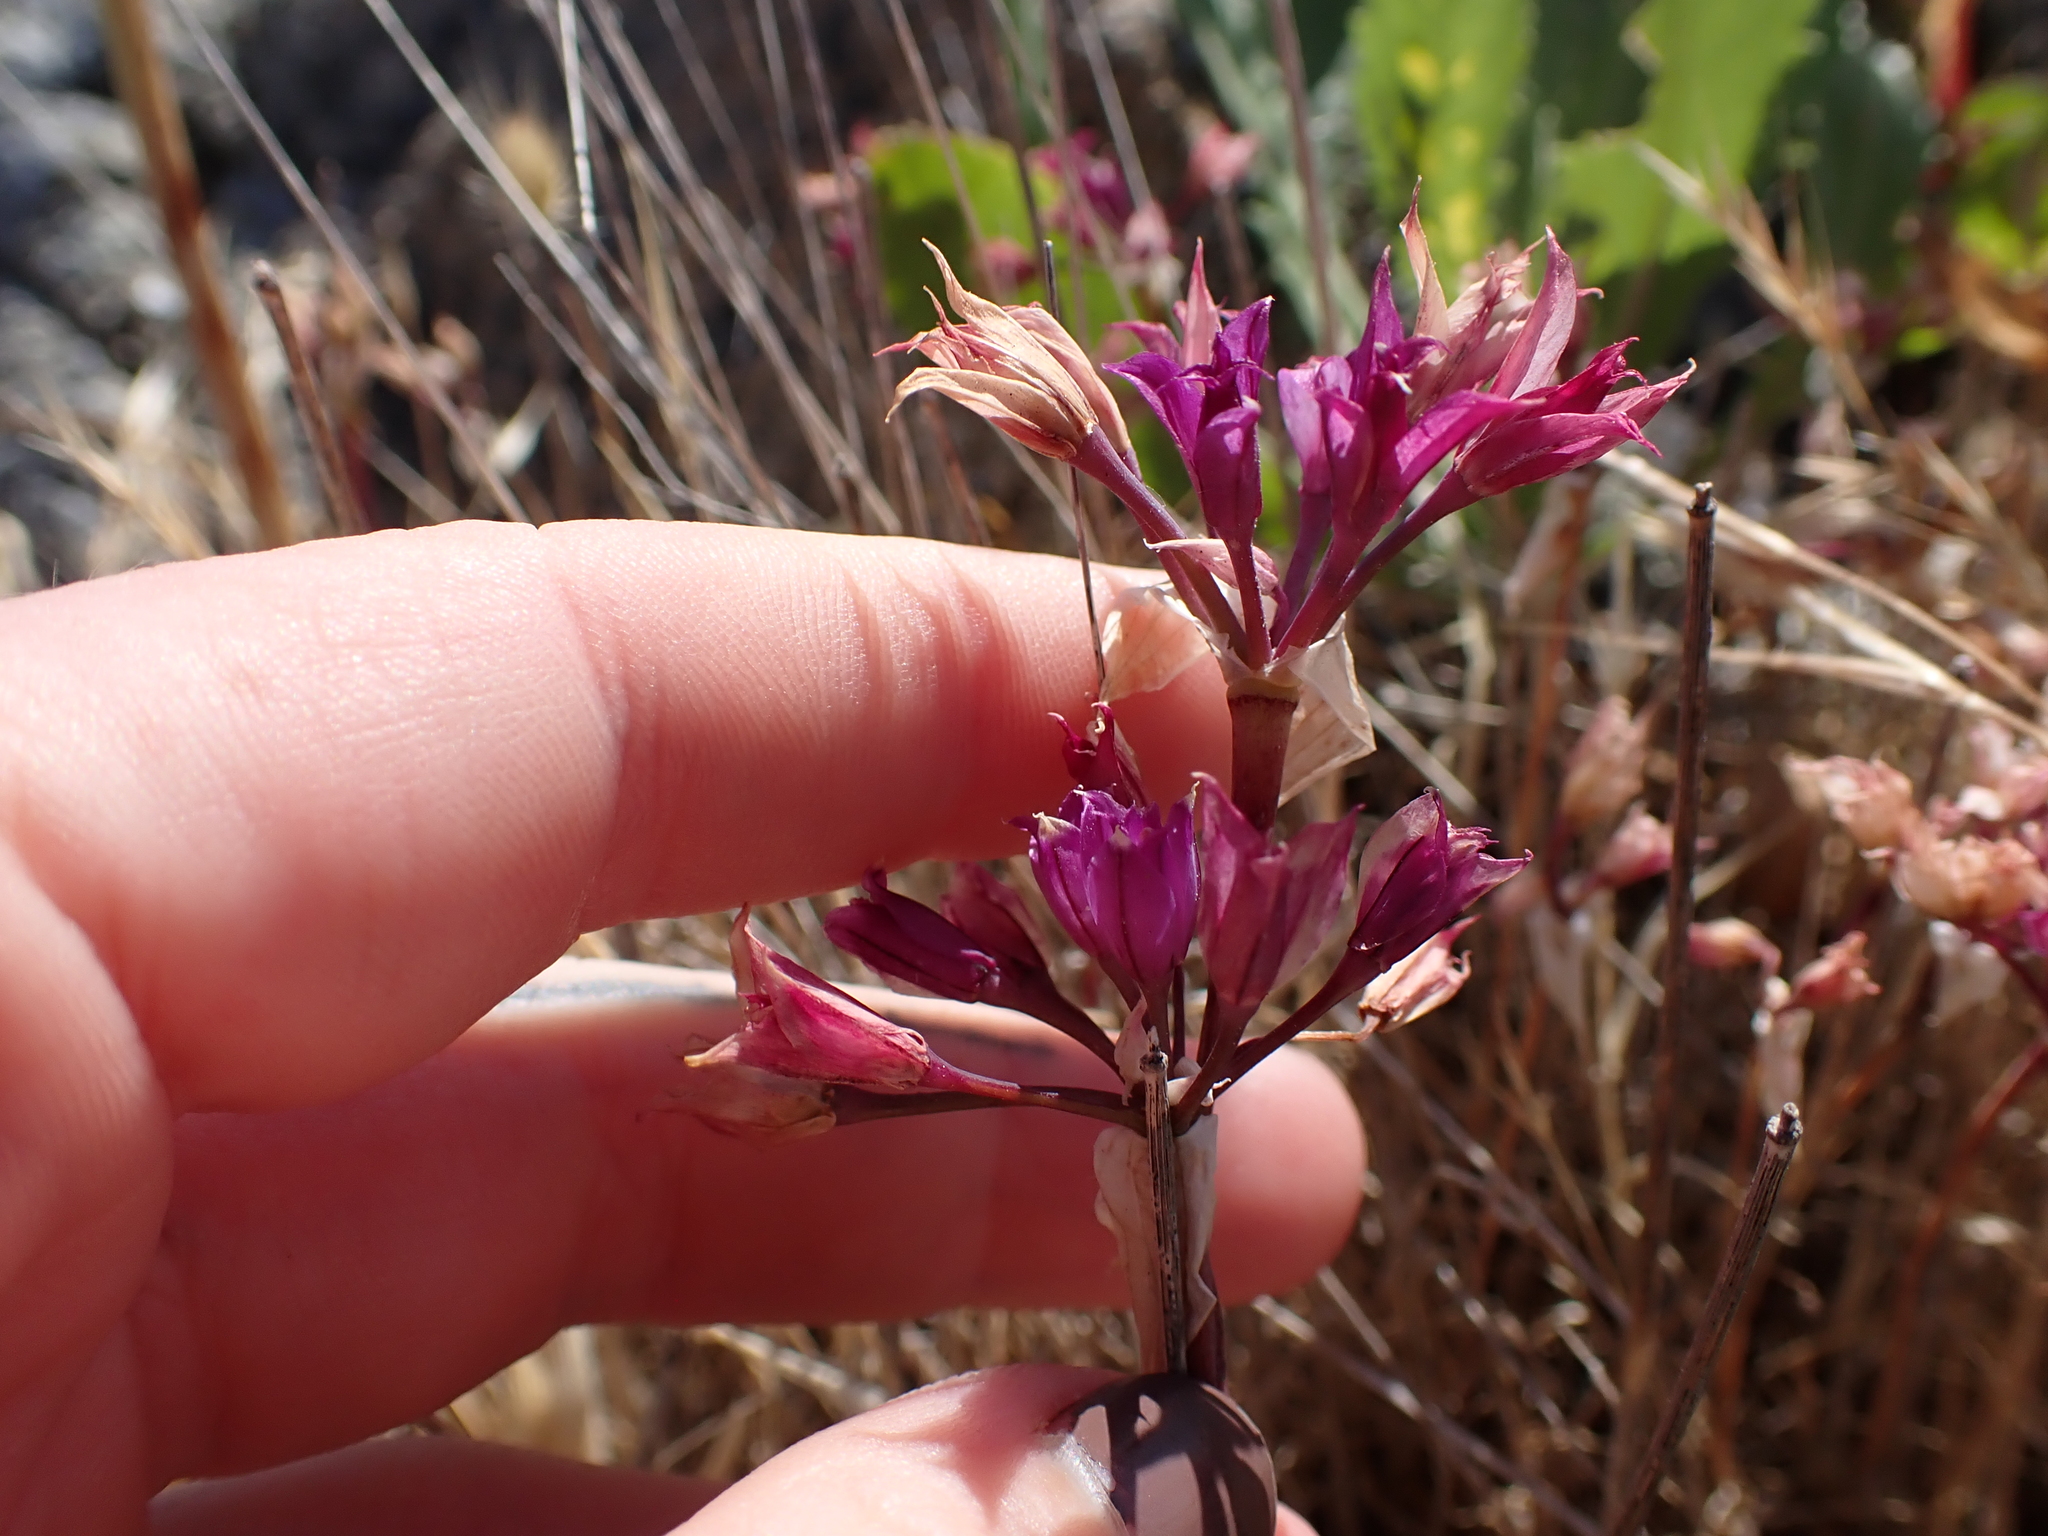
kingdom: Plantae
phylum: Tracheophyta
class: Liliopsida
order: Asparagales
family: Amaryllidaceae
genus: Allium
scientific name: Allium acuminatum
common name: Hooker's onion
